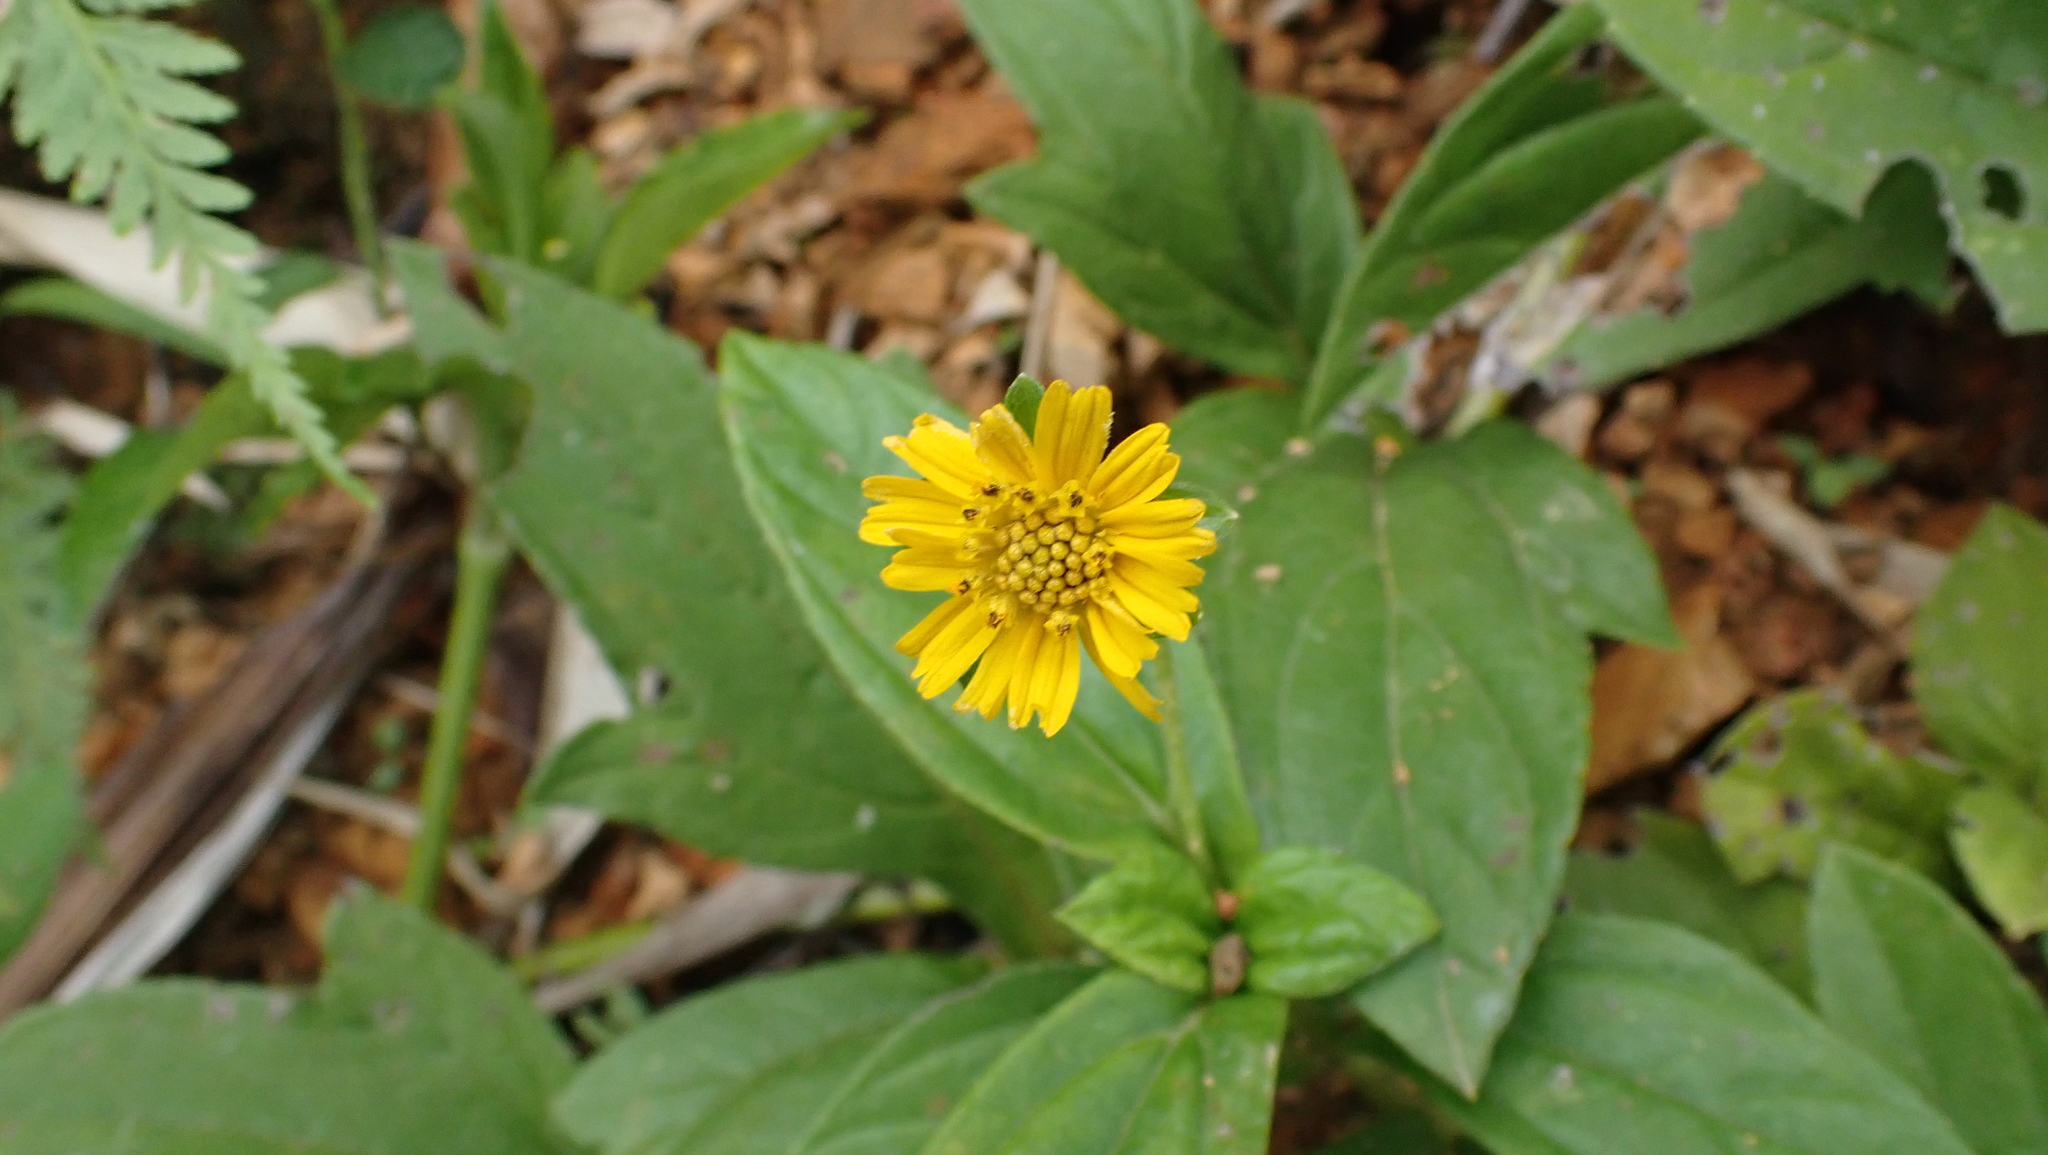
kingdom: Plantae
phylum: Tracheophyta
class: Magnoliopsida
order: Asterales
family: Asteraceae
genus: Sphagneticola
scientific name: Sphagneticola trilobata
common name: Bay biscayne creeping-oxeye
